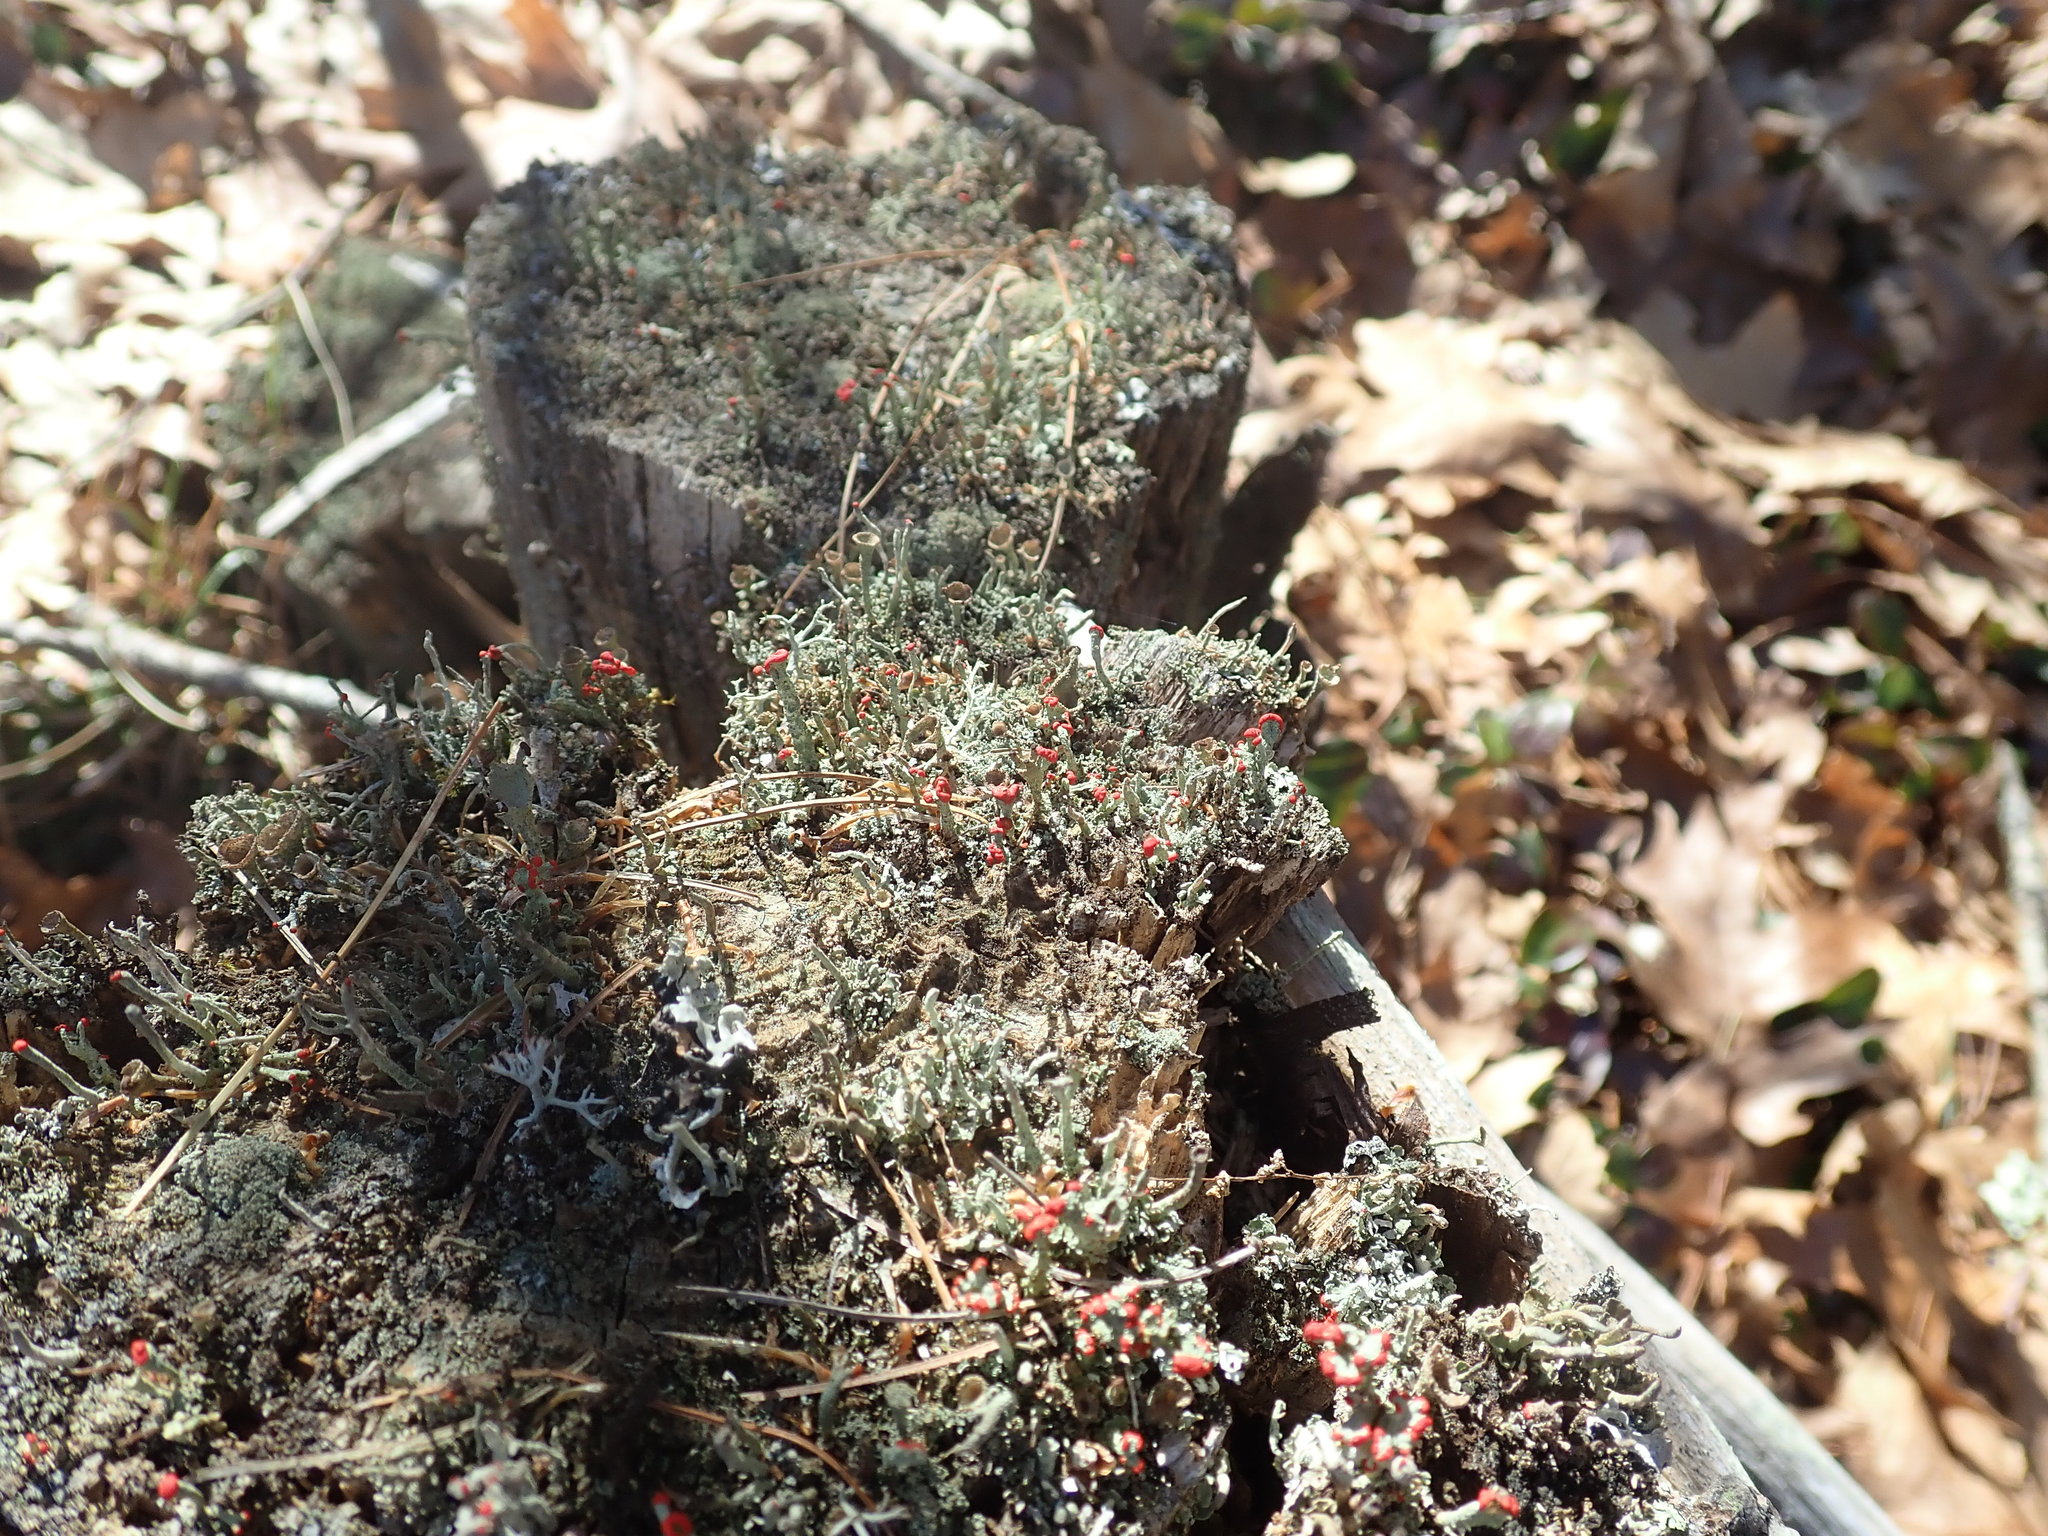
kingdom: Fungi
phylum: Ascomycota
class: Lecanoromycetes
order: Lecanorales
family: Cladoniaceae
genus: Cladonia
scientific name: Cladonia cristatella
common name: British soldier lichen
